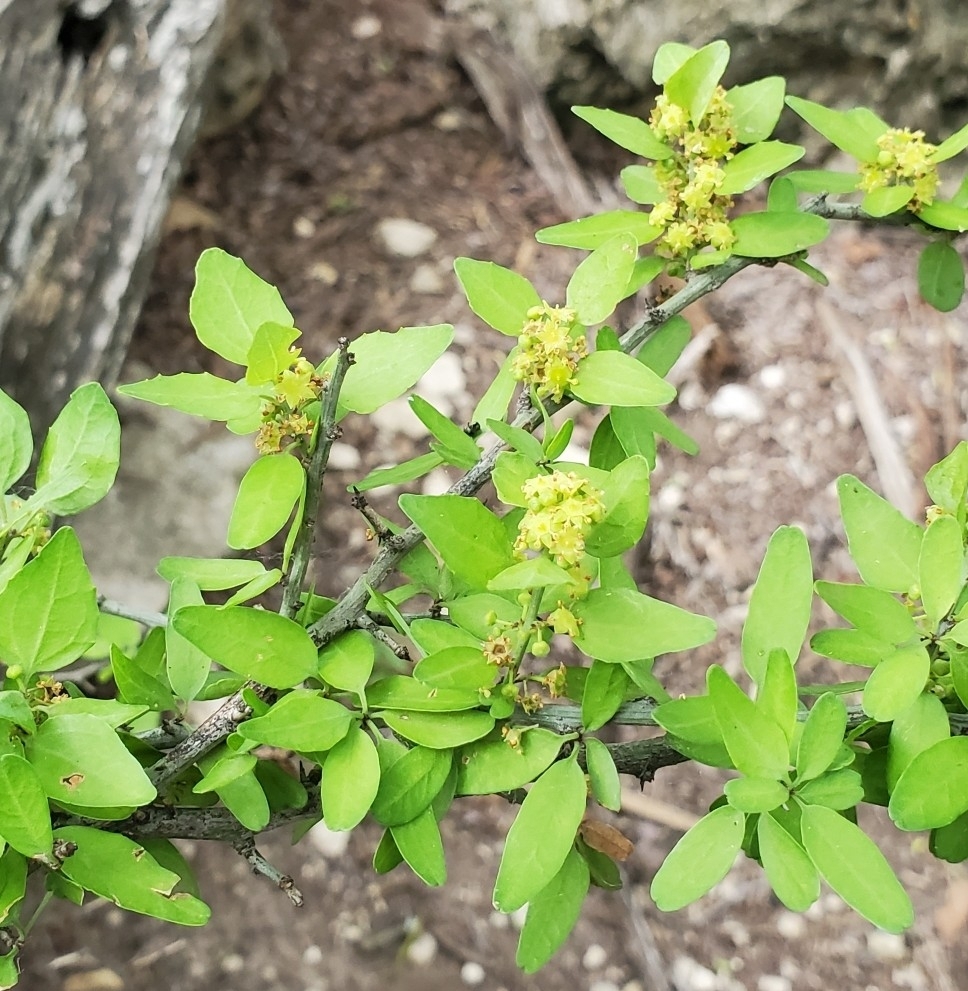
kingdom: Plantae
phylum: Tracheophyta
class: Magnoliopsida
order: Rosales
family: Rhamnaceae
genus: Sarcomphalus
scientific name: Sarcomphalus obtusifolius
